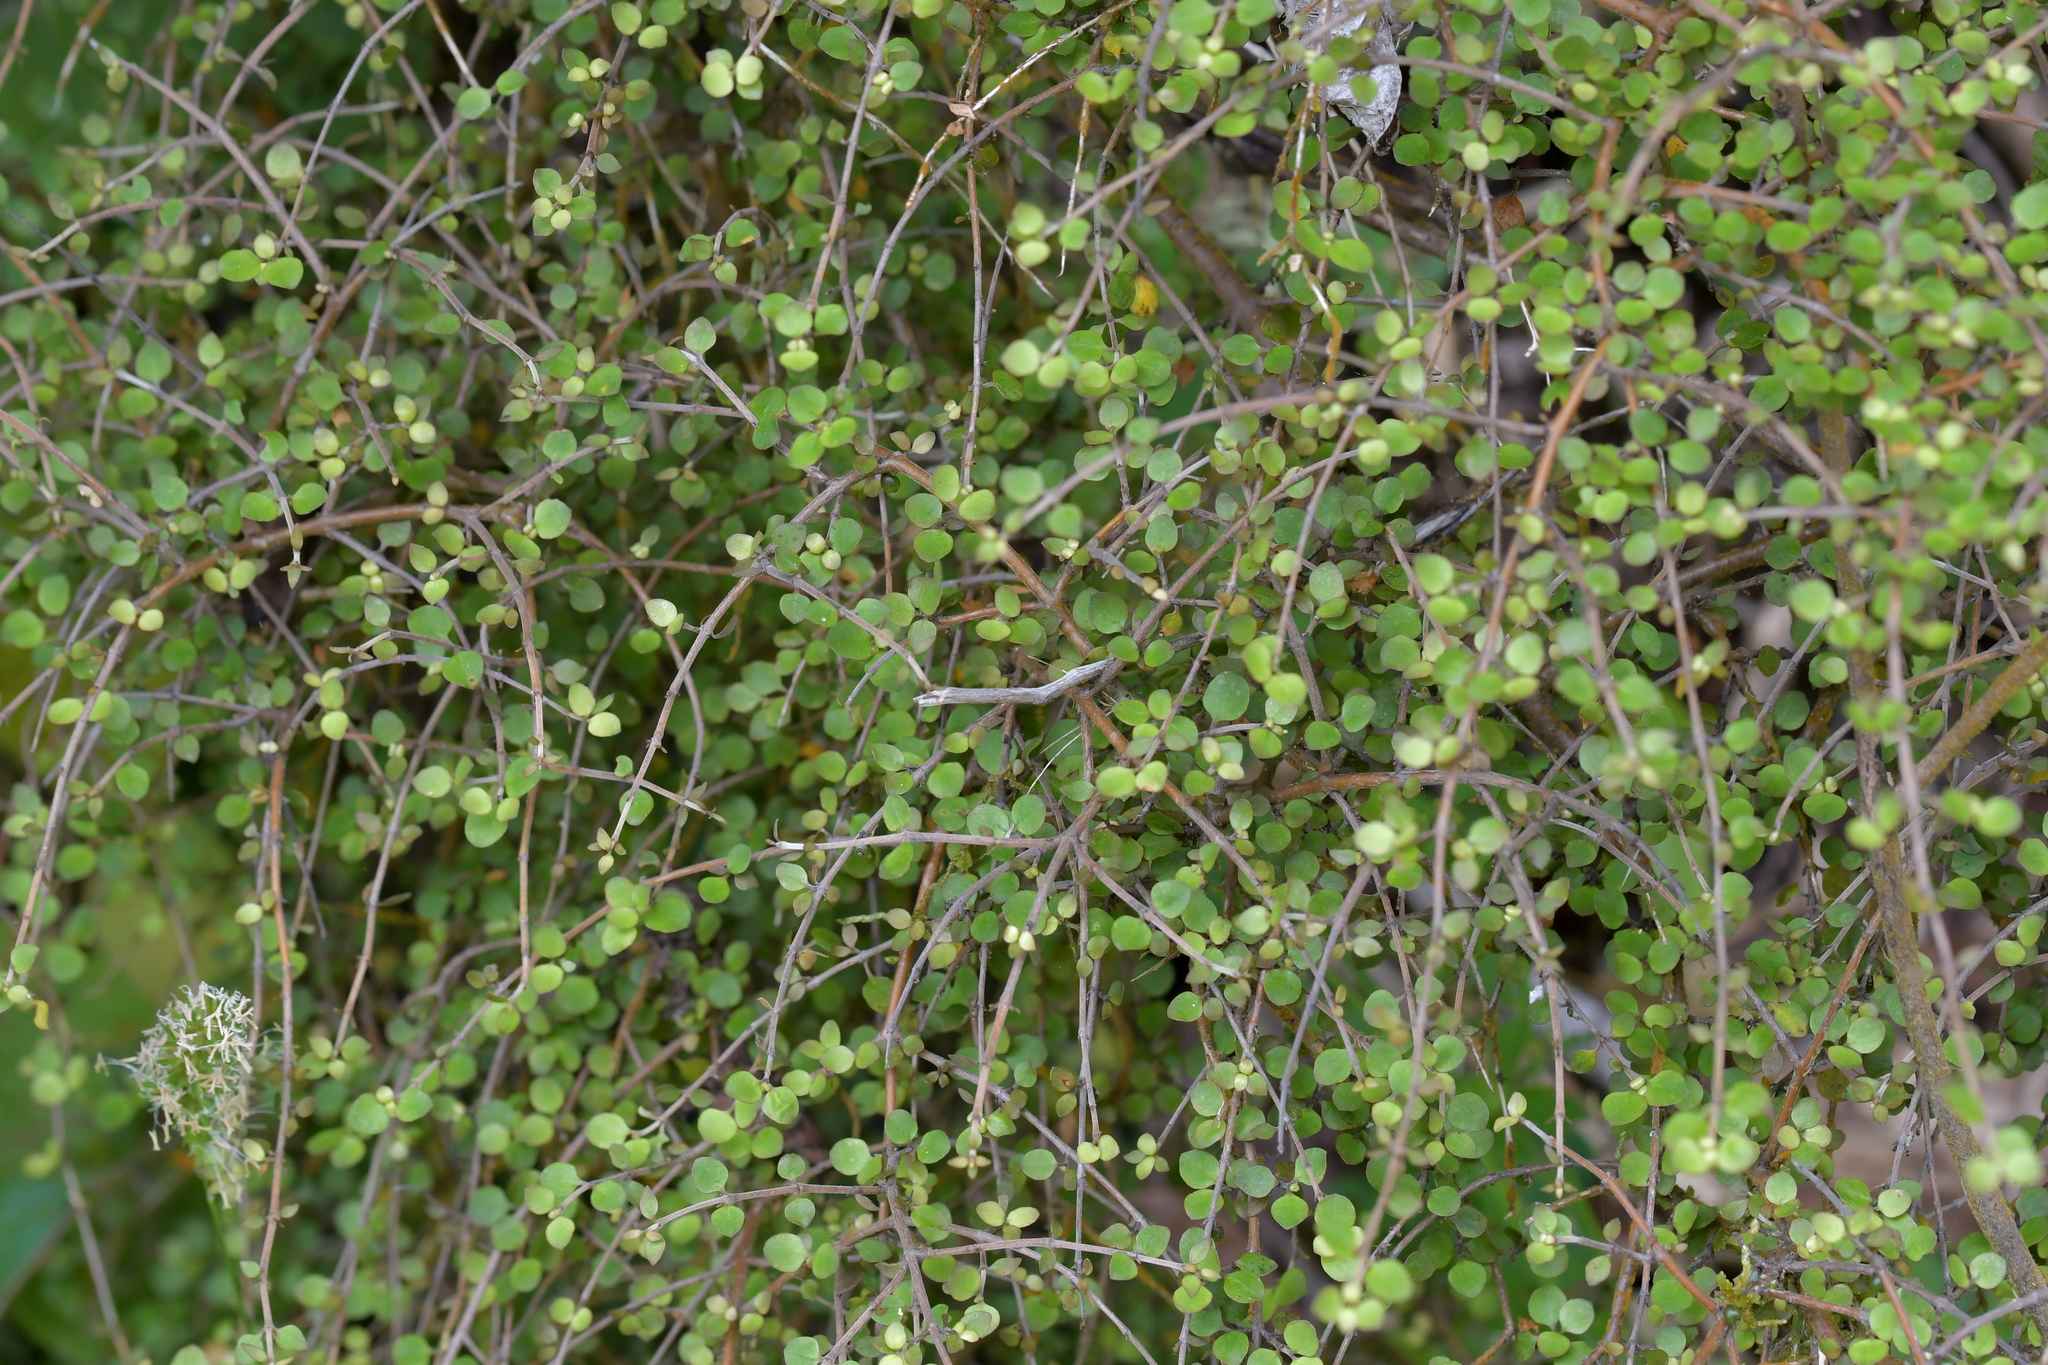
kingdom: Plantae
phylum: Tracheophyta
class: Magnoliopsida
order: Gentianales
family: Rubiaceae
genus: Coprosma
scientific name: Coprosma rhamnoides
